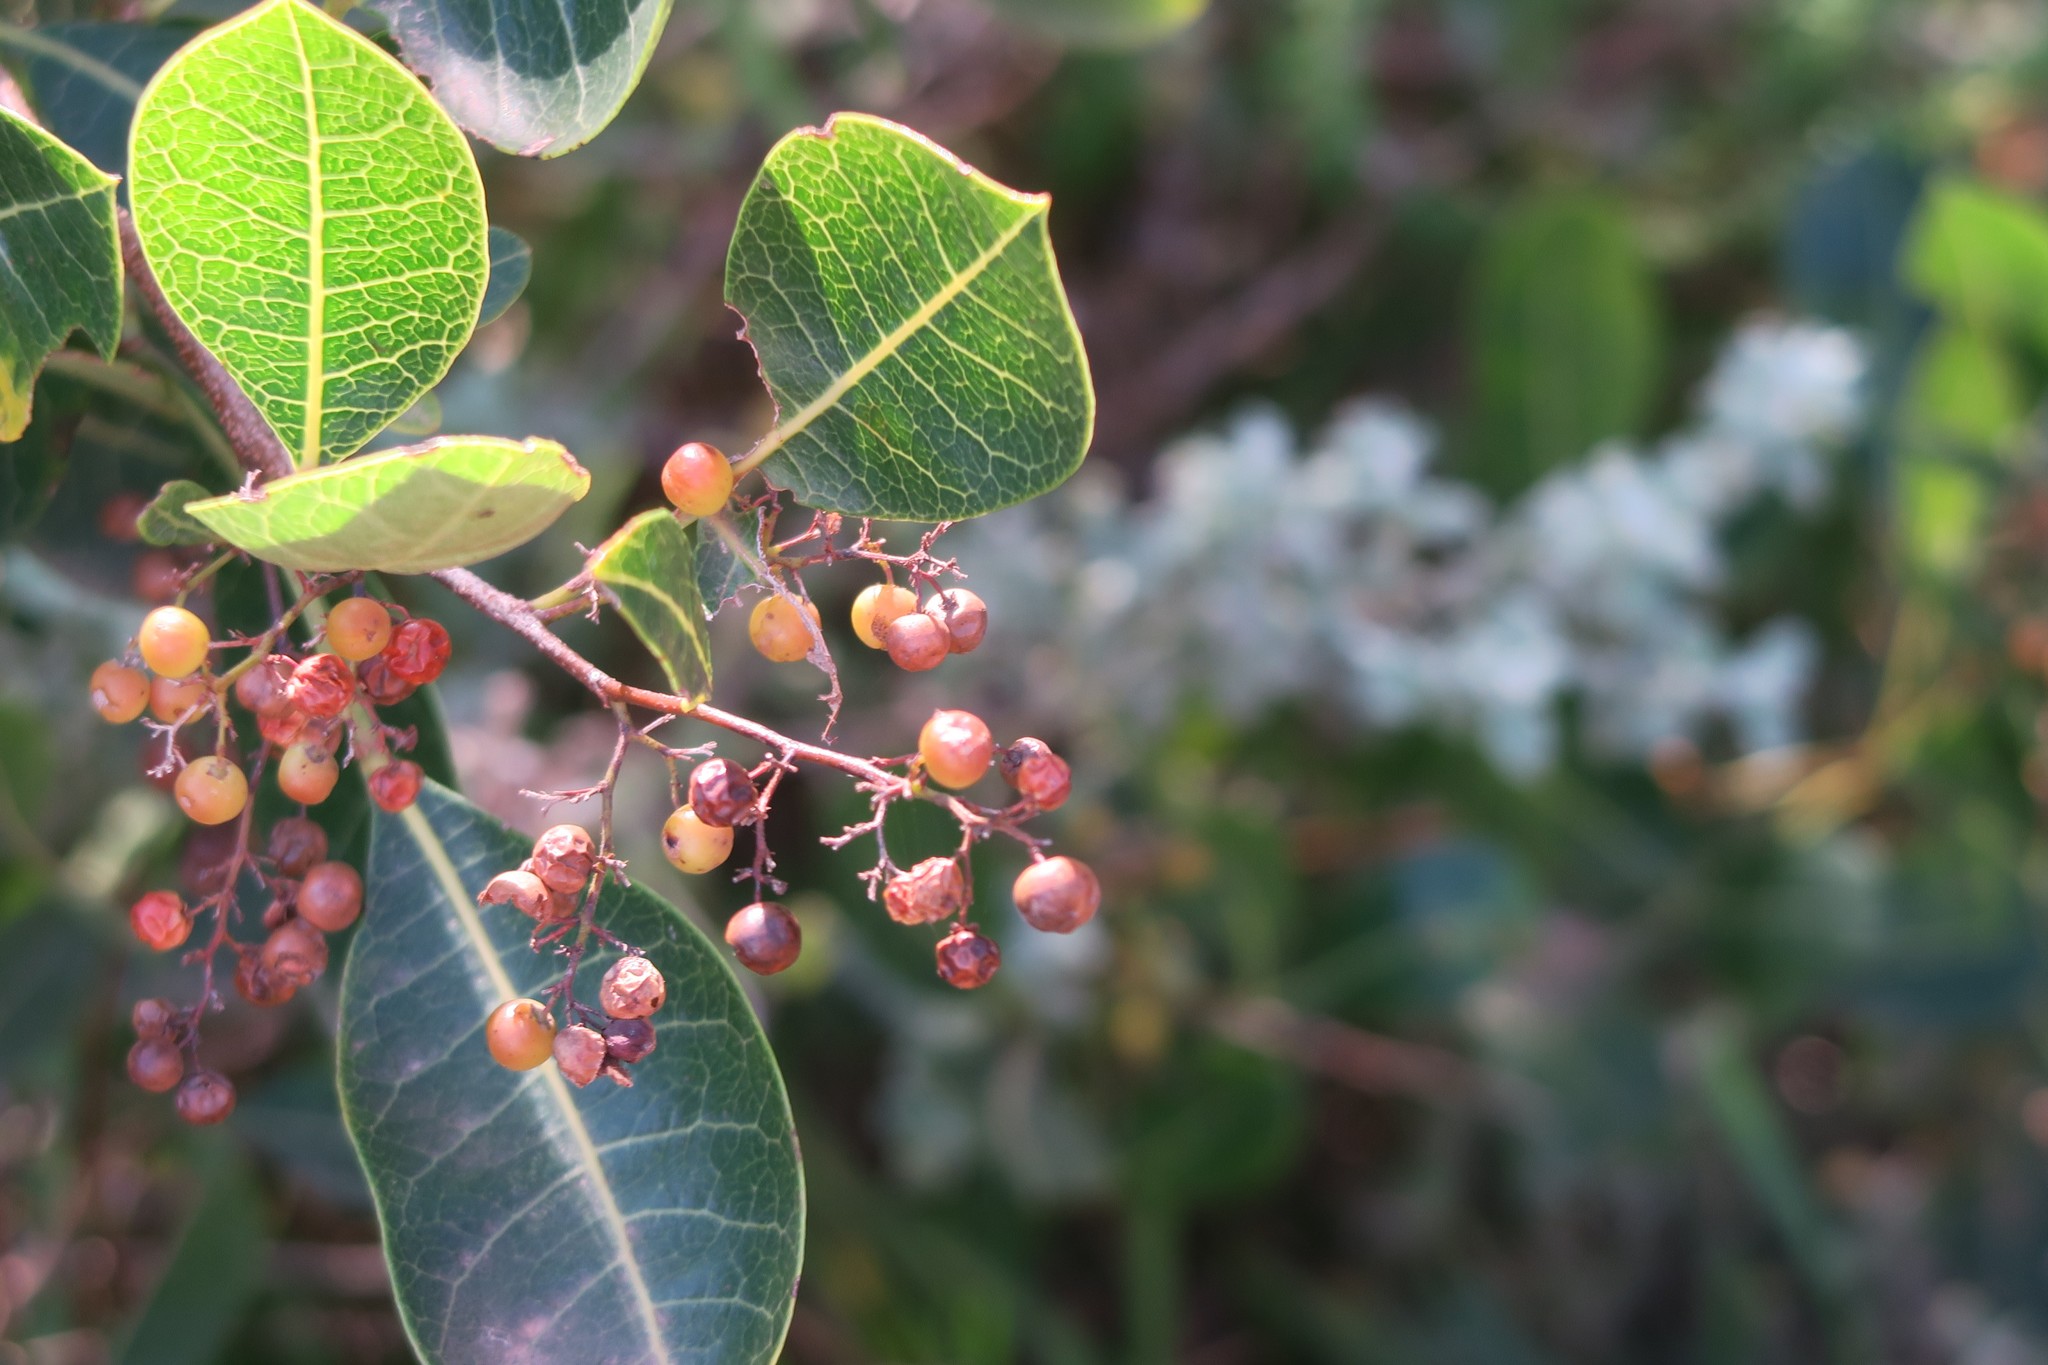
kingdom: Plantae
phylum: Tracheophyta
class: Magnoliopsida
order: Sapindales
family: Anacardiaceae
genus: Searsia
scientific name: Searsia laevigata
